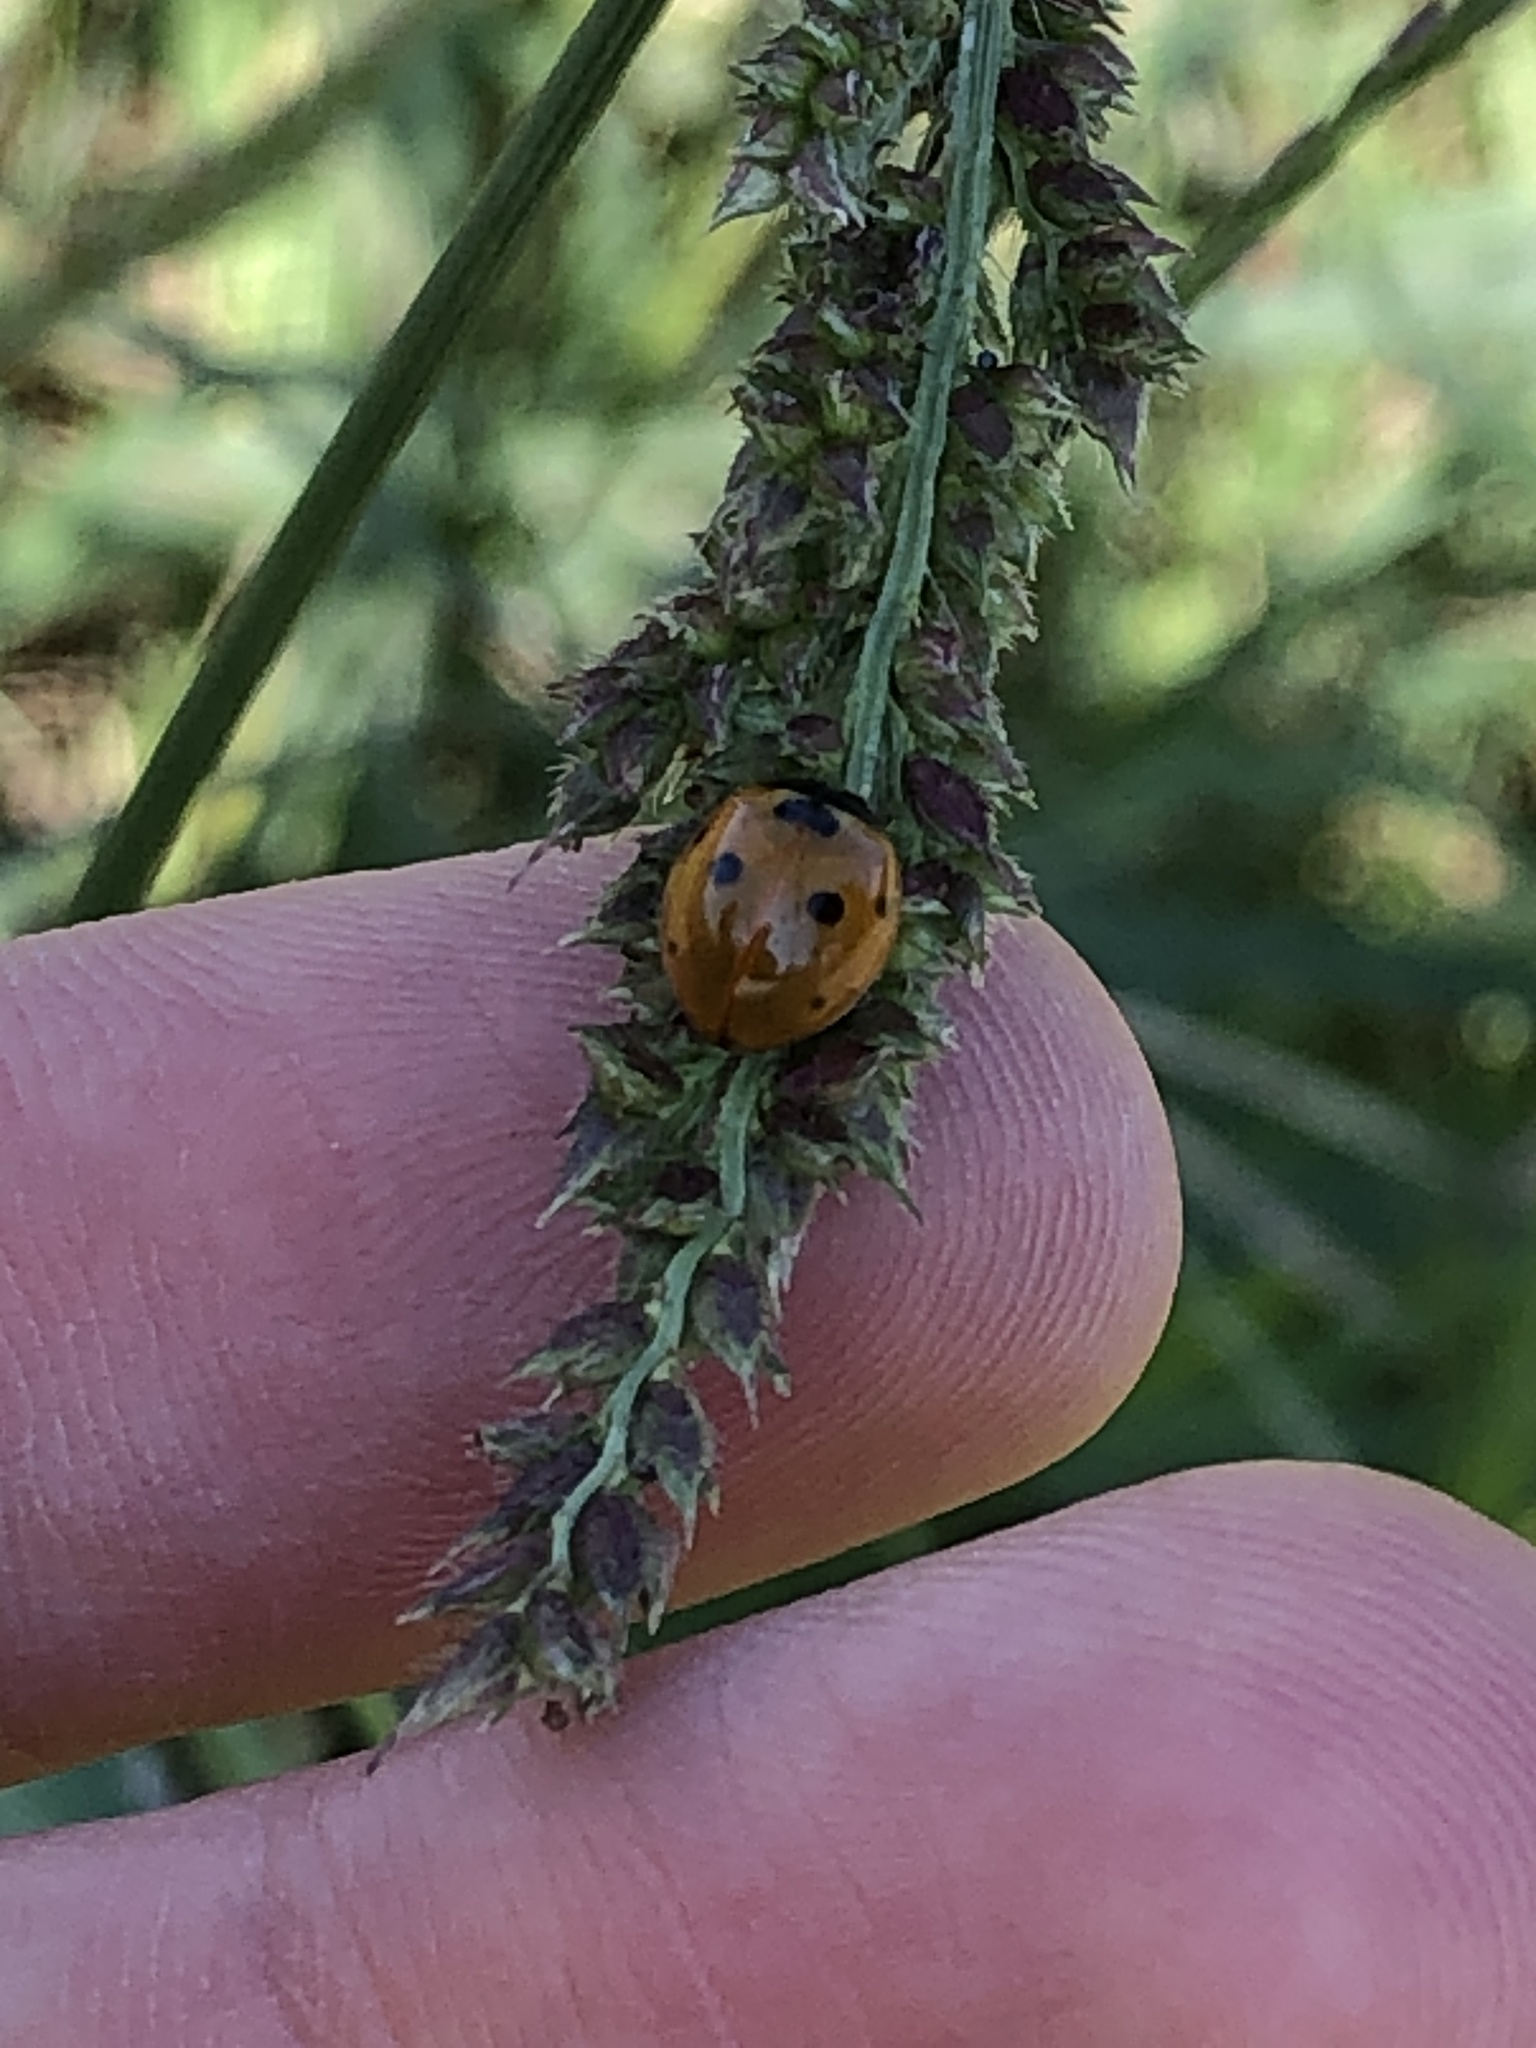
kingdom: Animalia
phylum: Arthropoda
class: Insecta
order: Coleoptera
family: Coccinellidae
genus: Coccinella
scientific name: Coccinella septempunctata
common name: Sevenspotted lady beetle
